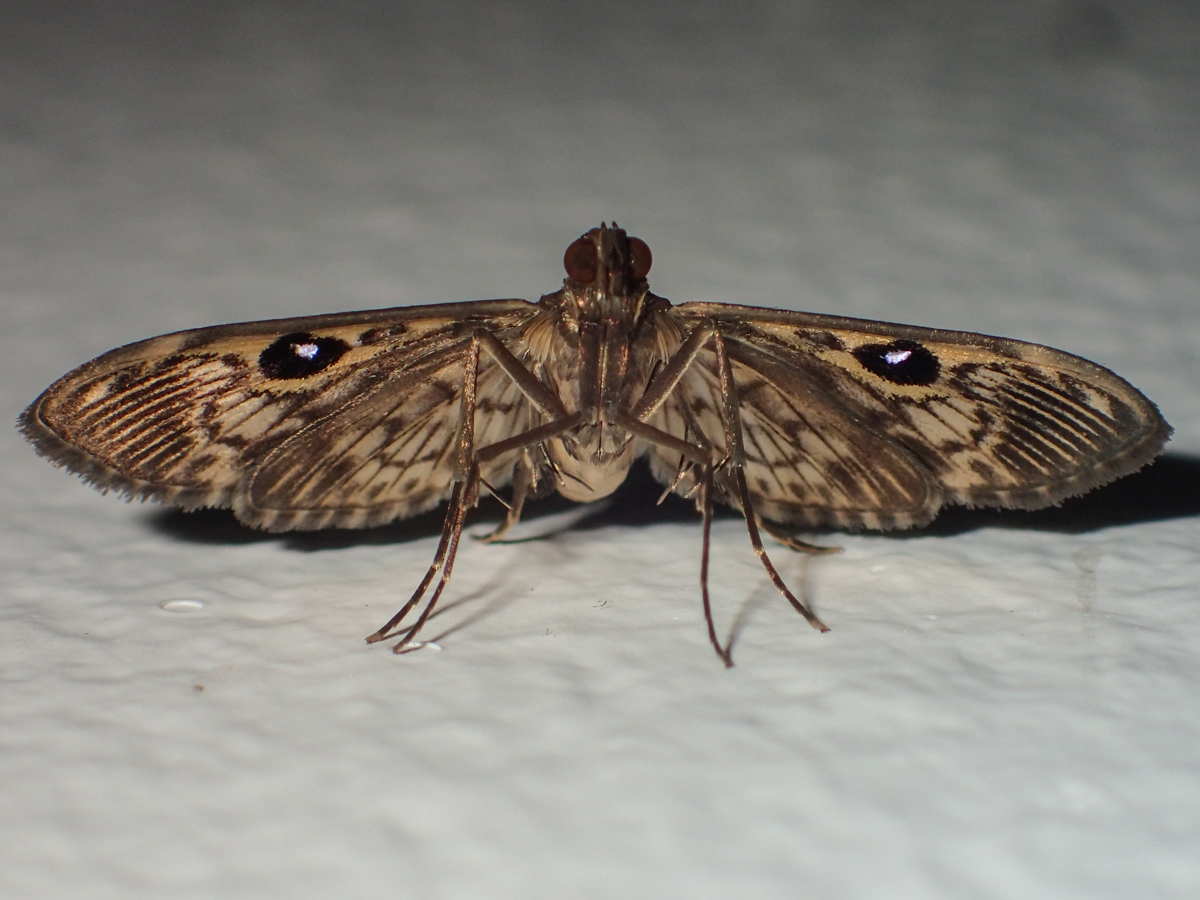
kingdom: Animalia
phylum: Arthropoda
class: Insecta
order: Lepidoptera
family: Crambidae
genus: Rhimphaliodes
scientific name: Rhimphaliodes macrostigma
